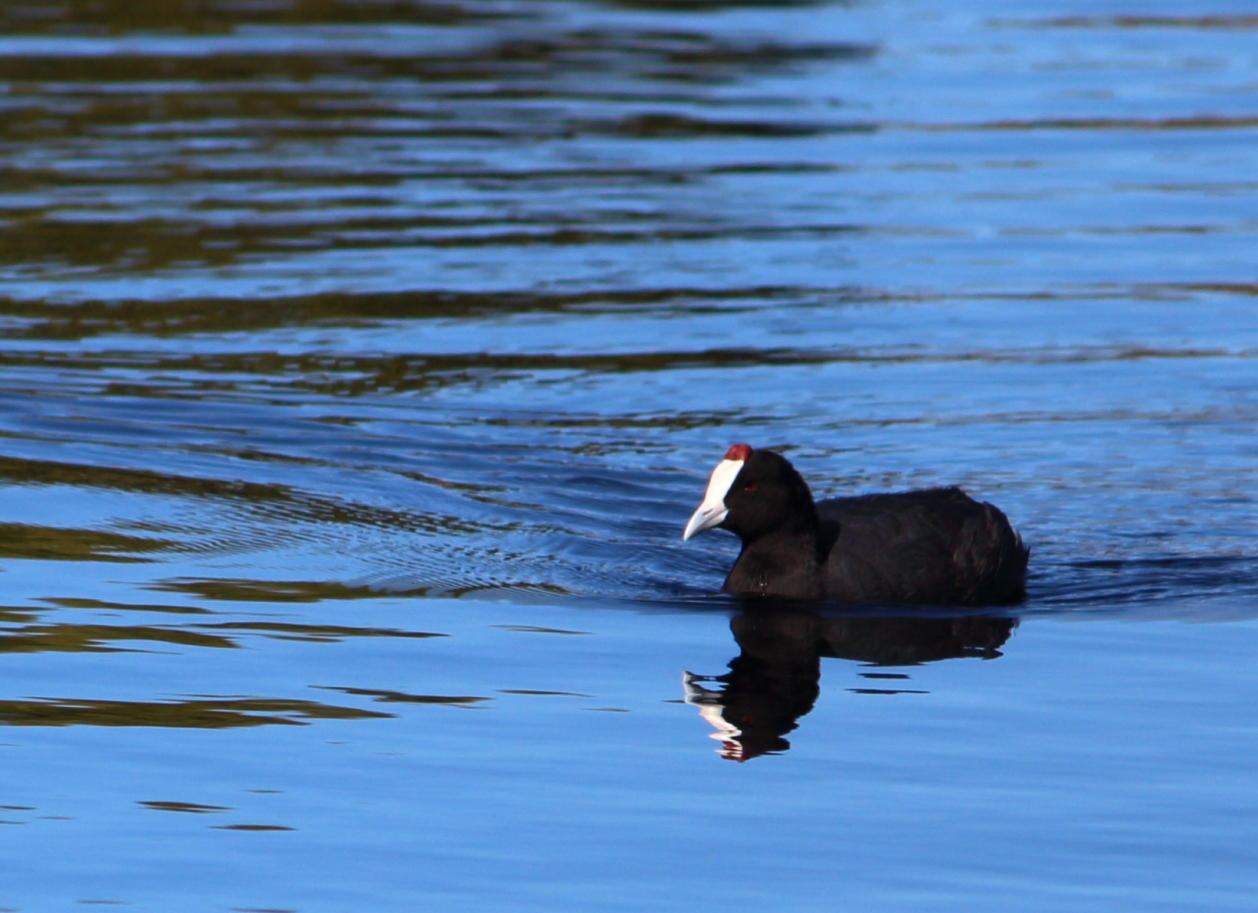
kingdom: Animalia
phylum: Chordata
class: Aves
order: Gruiformes
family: Rallidae
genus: Fulica
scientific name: Fulica cristata
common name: Red-knobbed coot
